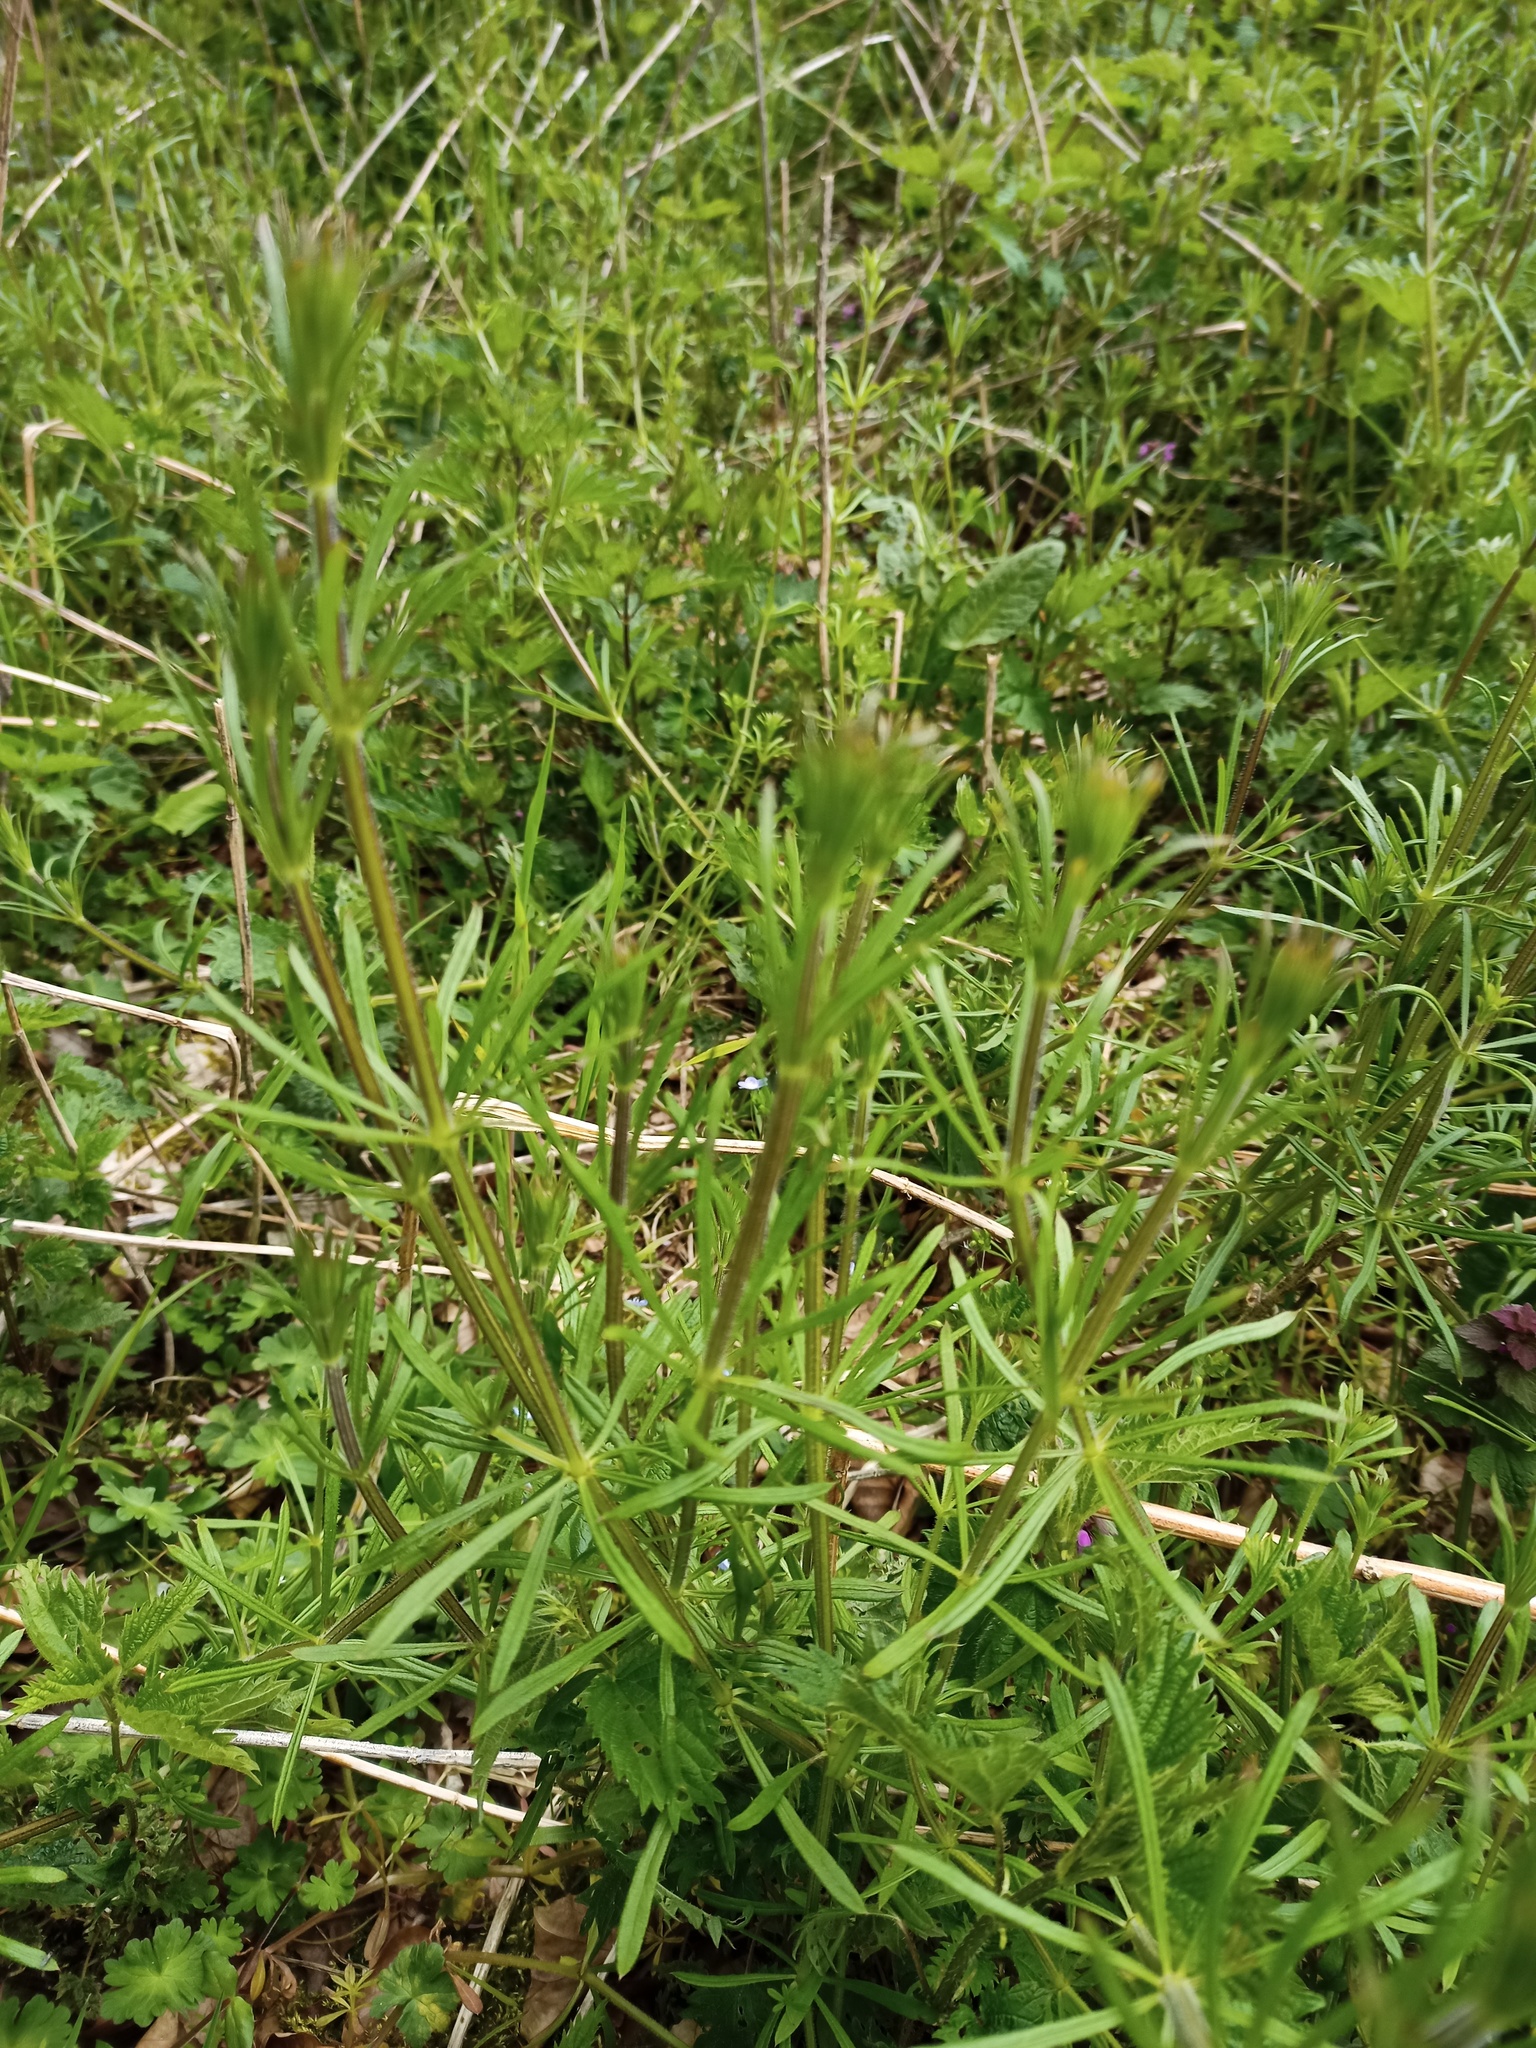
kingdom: Plantae
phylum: Tracheophyta
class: Magnoliopsida
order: Gentianales
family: Rubiaceae
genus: Galium
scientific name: Galium aparine
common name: Cleavers
